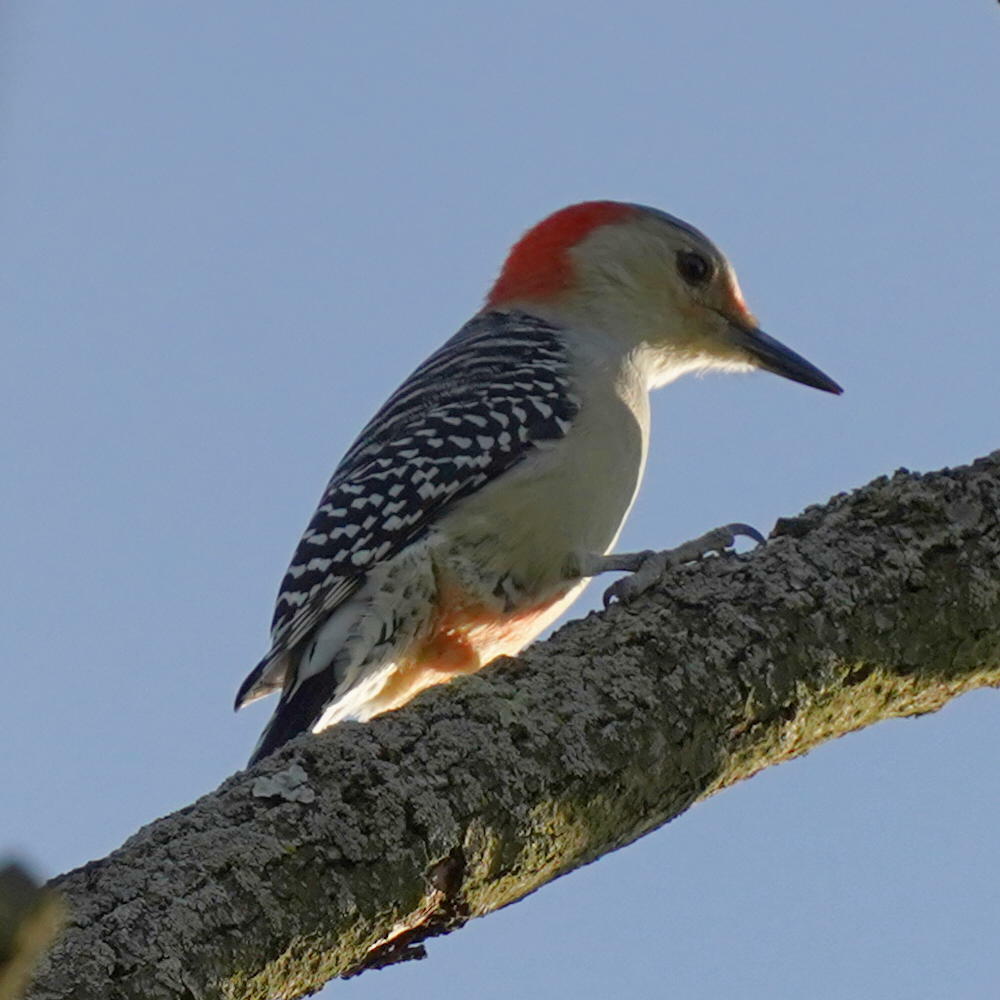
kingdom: Animalia
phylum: Chordata
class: Aves
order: Piciformes
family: Picidae
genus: Melanerpes
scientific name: Melanerpes carolinus
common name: Red-bellied woodpecker
